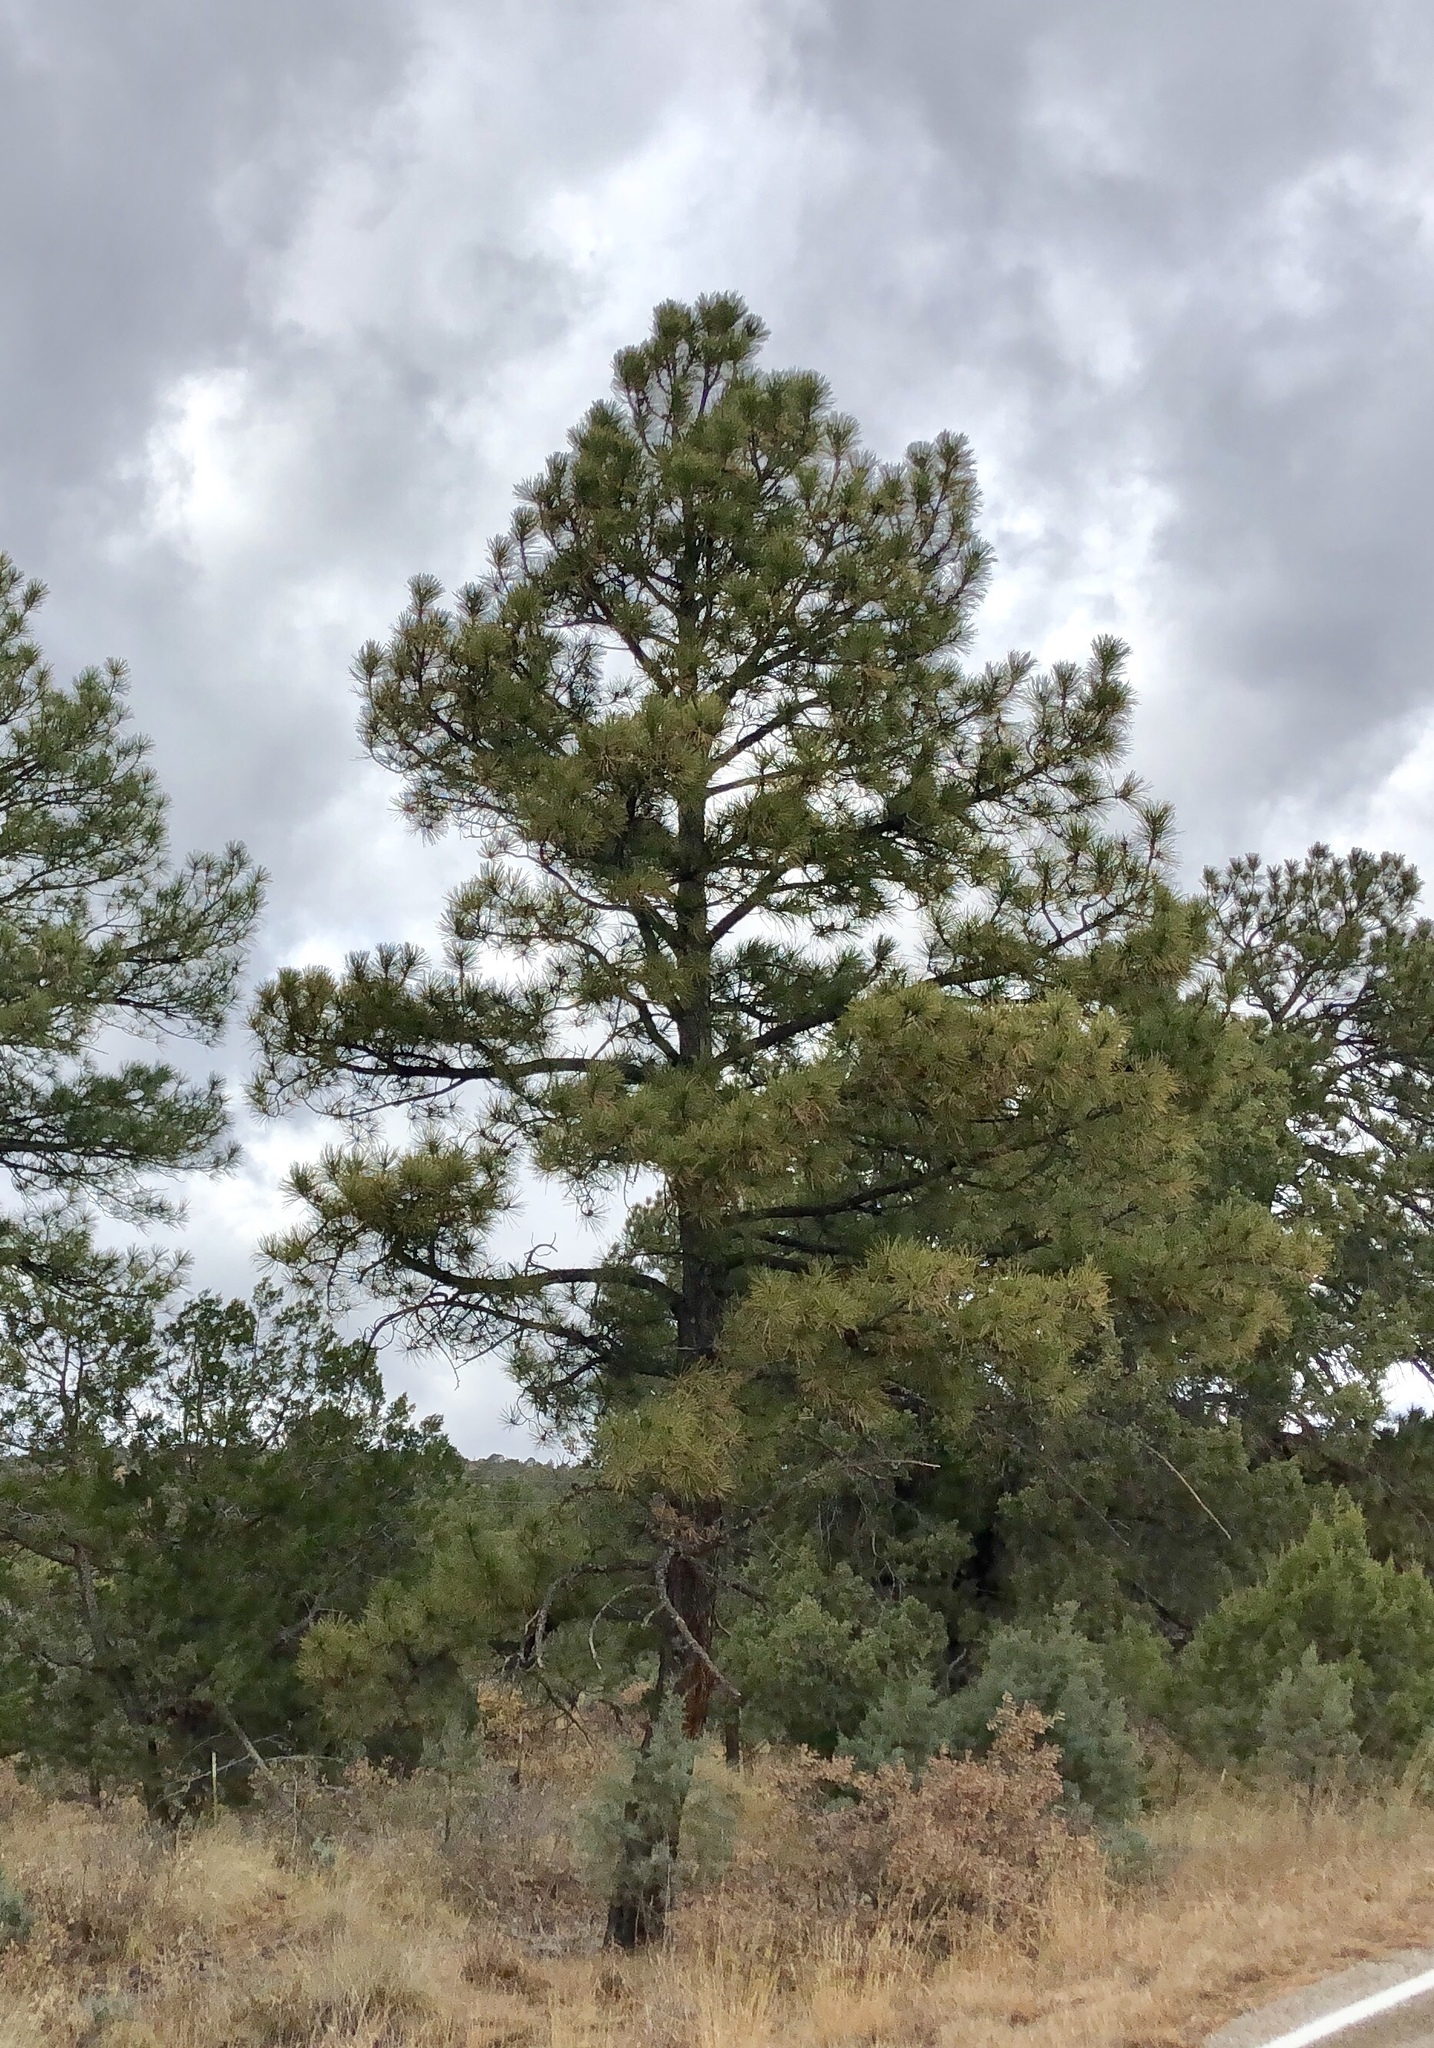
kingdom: Plantae
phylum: Tracheophyta
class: Pinopsida
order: Pinales
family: Pinaceae
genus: Pinus
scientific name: Pinus ponderosa
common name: Western yellow-pine
